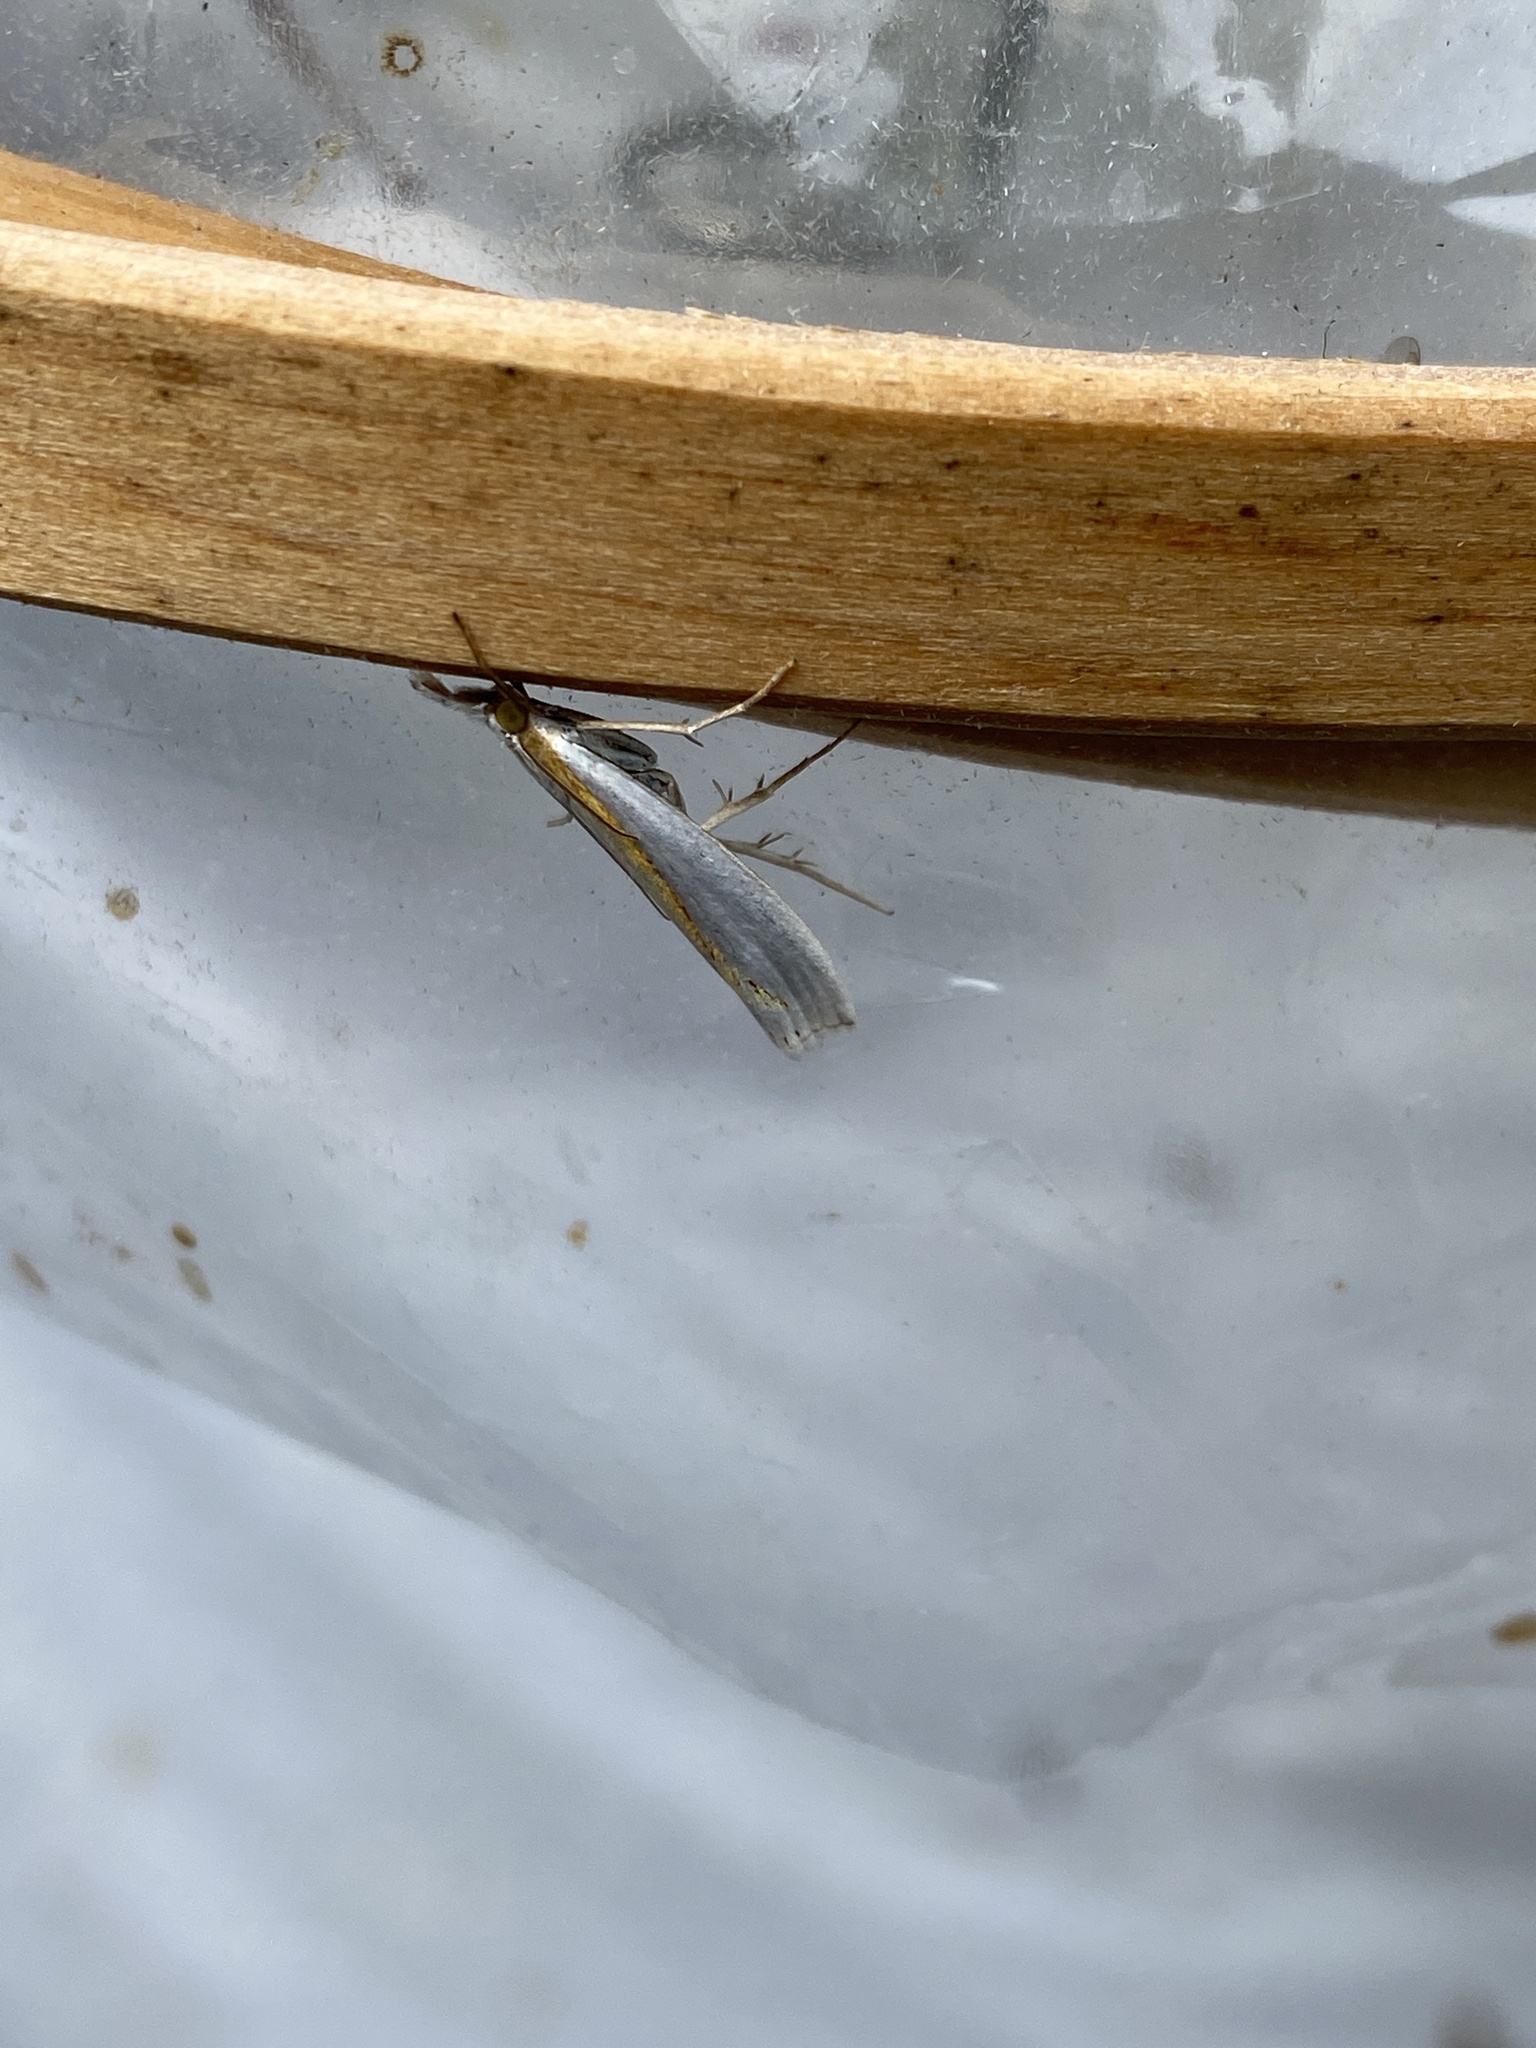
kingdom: Animalia
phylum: Arthropoda
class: Insecta
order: Lepidoptera
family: Crambidae
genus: Crambus
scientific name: Crambus girardellus
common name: Girard's grass-veneer
